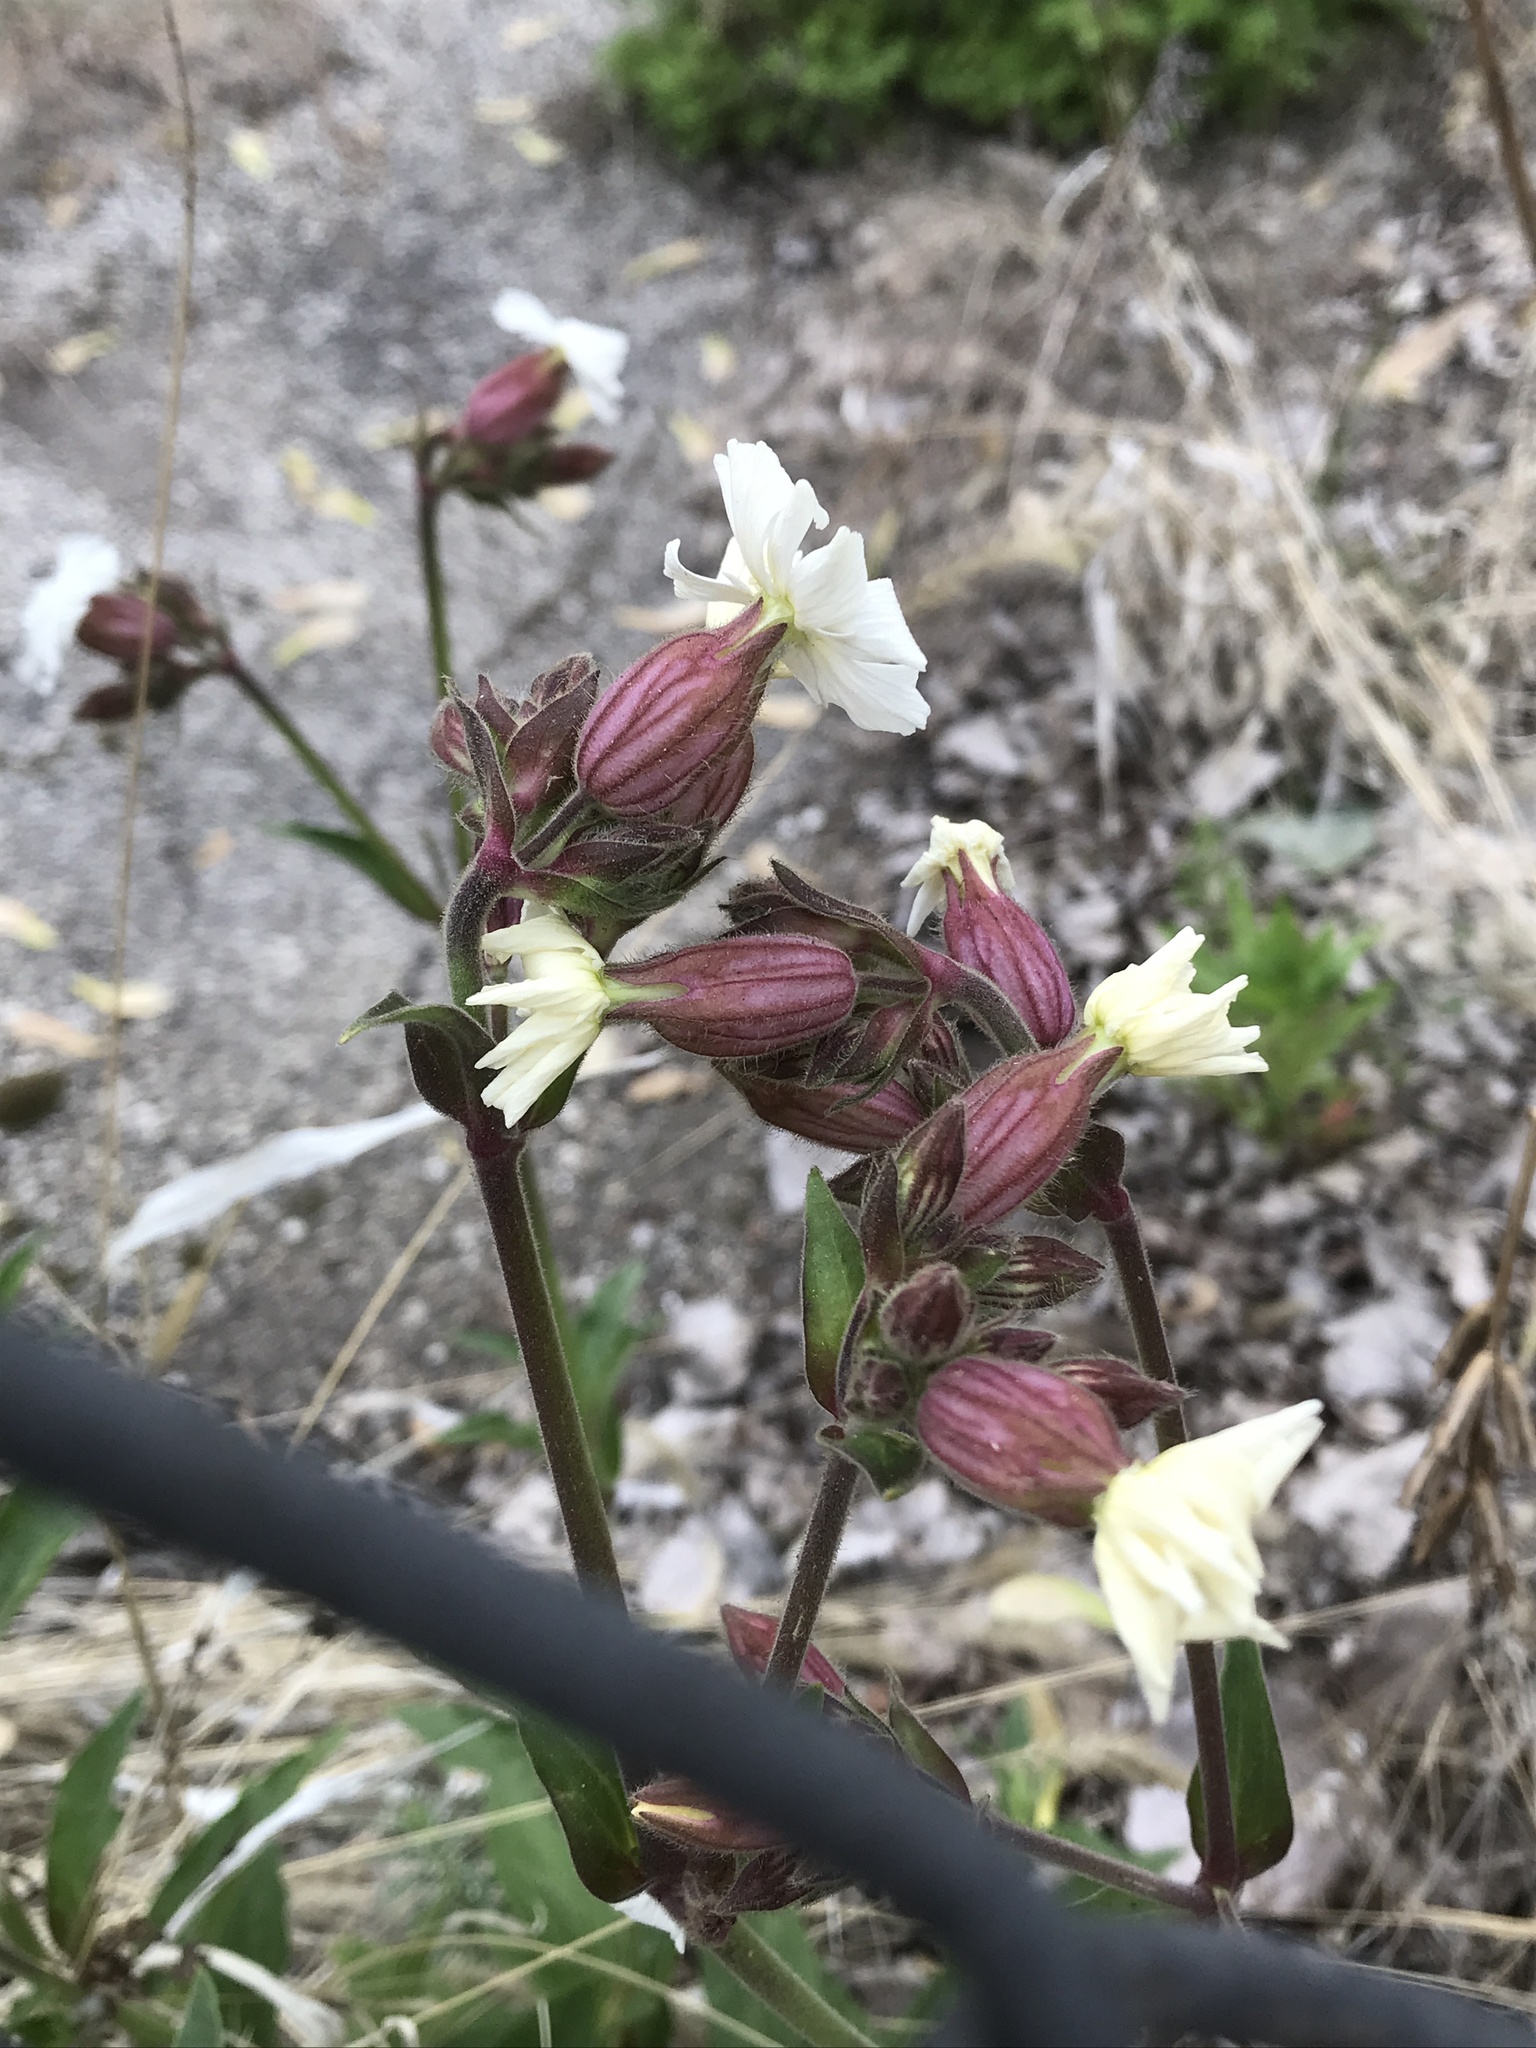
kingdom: Plantae
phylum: Tracheophyta
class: Magnoliopsida
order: Caryophyllales
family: Caryophyllaceae
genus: Silene
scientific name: Silene latifolia
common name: White campion
